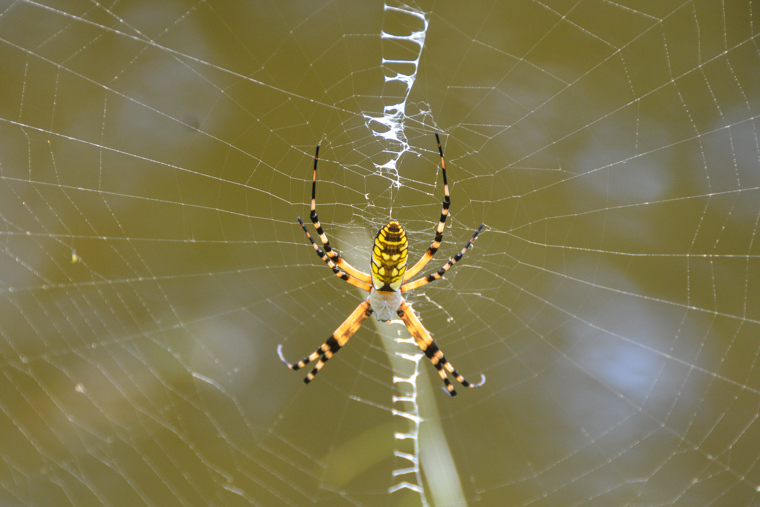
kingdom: Animalia
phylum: Arthropoda
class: Arachnida
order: Araneae
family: Araneidae
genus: Argiope
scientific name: Argiope aurantia
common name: Orb weavers
